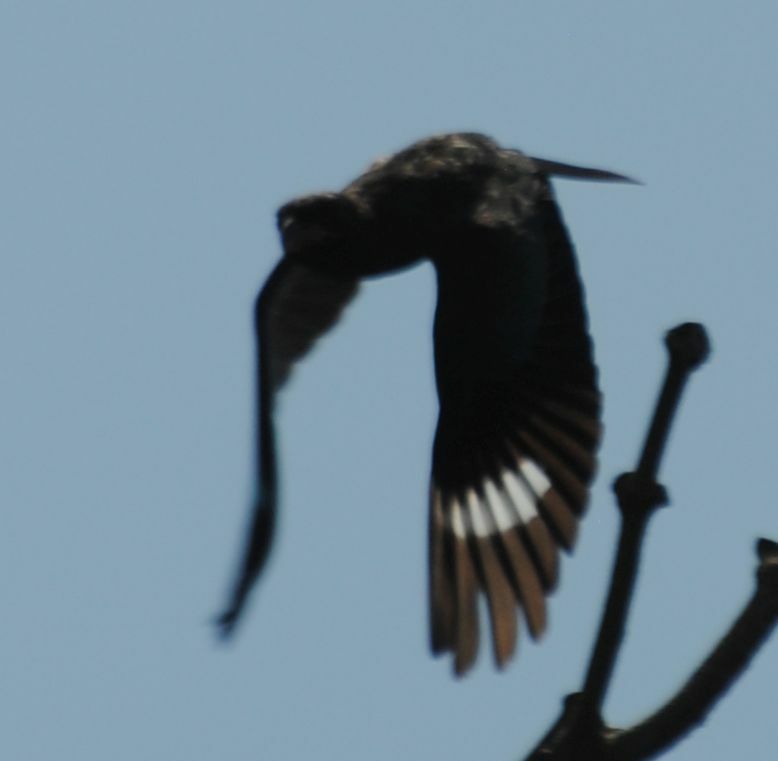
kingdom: Animalia
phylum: Chordata
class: Aves
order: Coraciiformes
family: Coraciidae
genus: Eurystomus
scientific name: Eurystomus orientalis
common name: Oriental dollarbird
